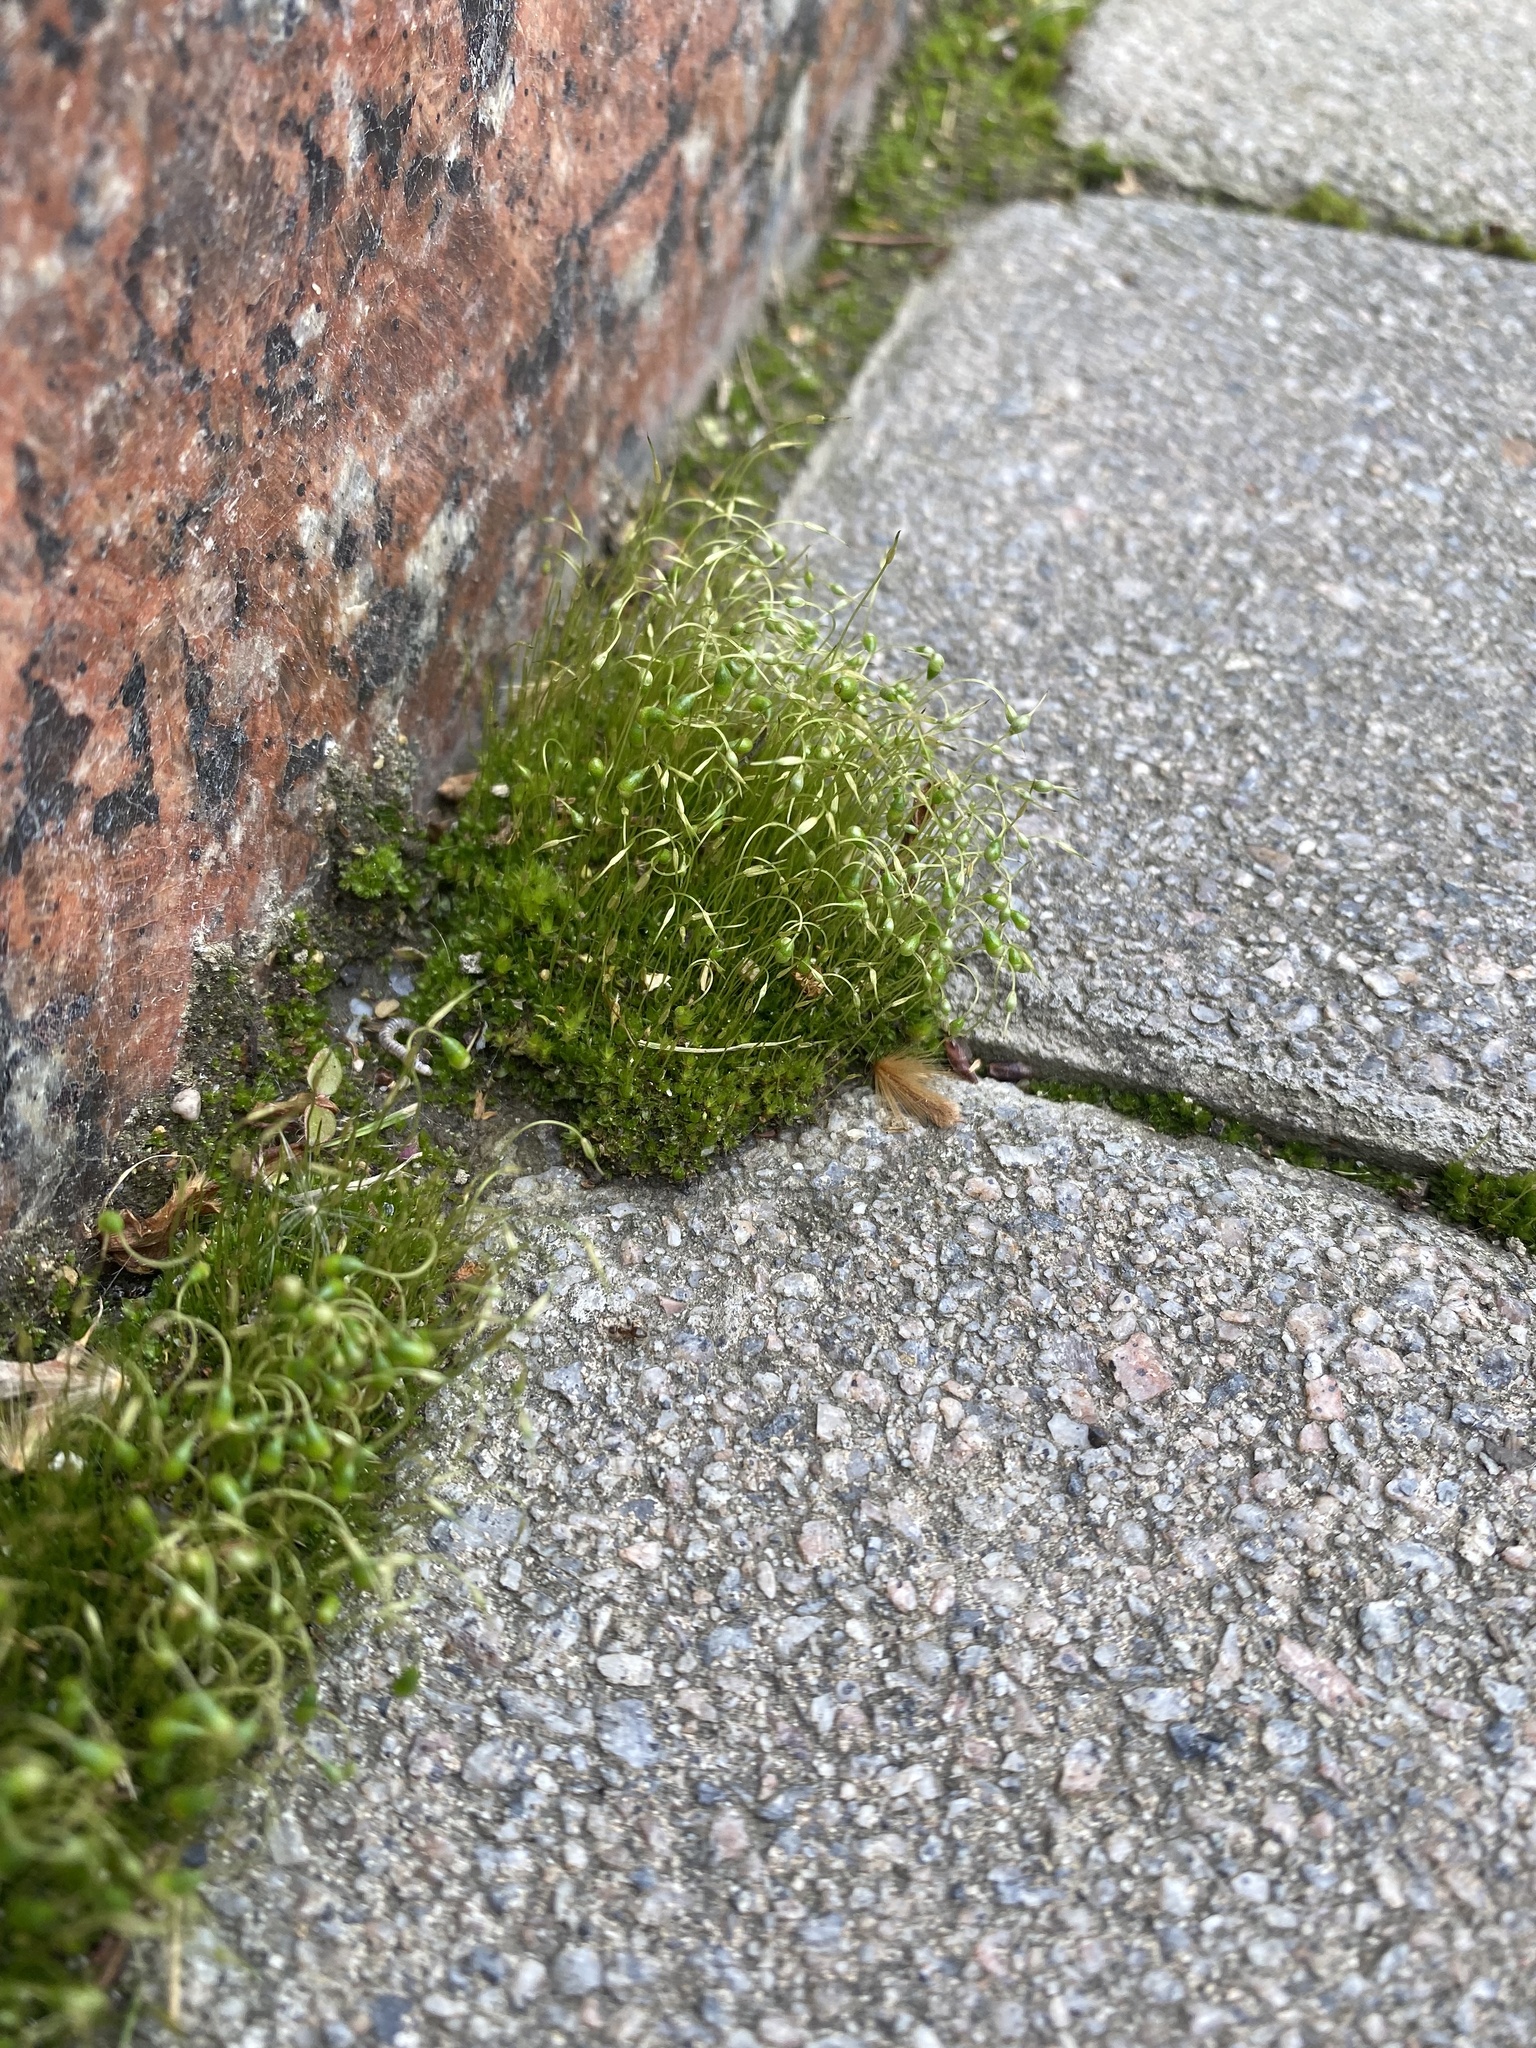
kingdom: Plantae
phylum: Bryophyta
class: Bryopsida
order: Funariales
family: Funariaceae
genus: Funaria
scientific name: Funaria hygrometrica
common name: Common cord moss
